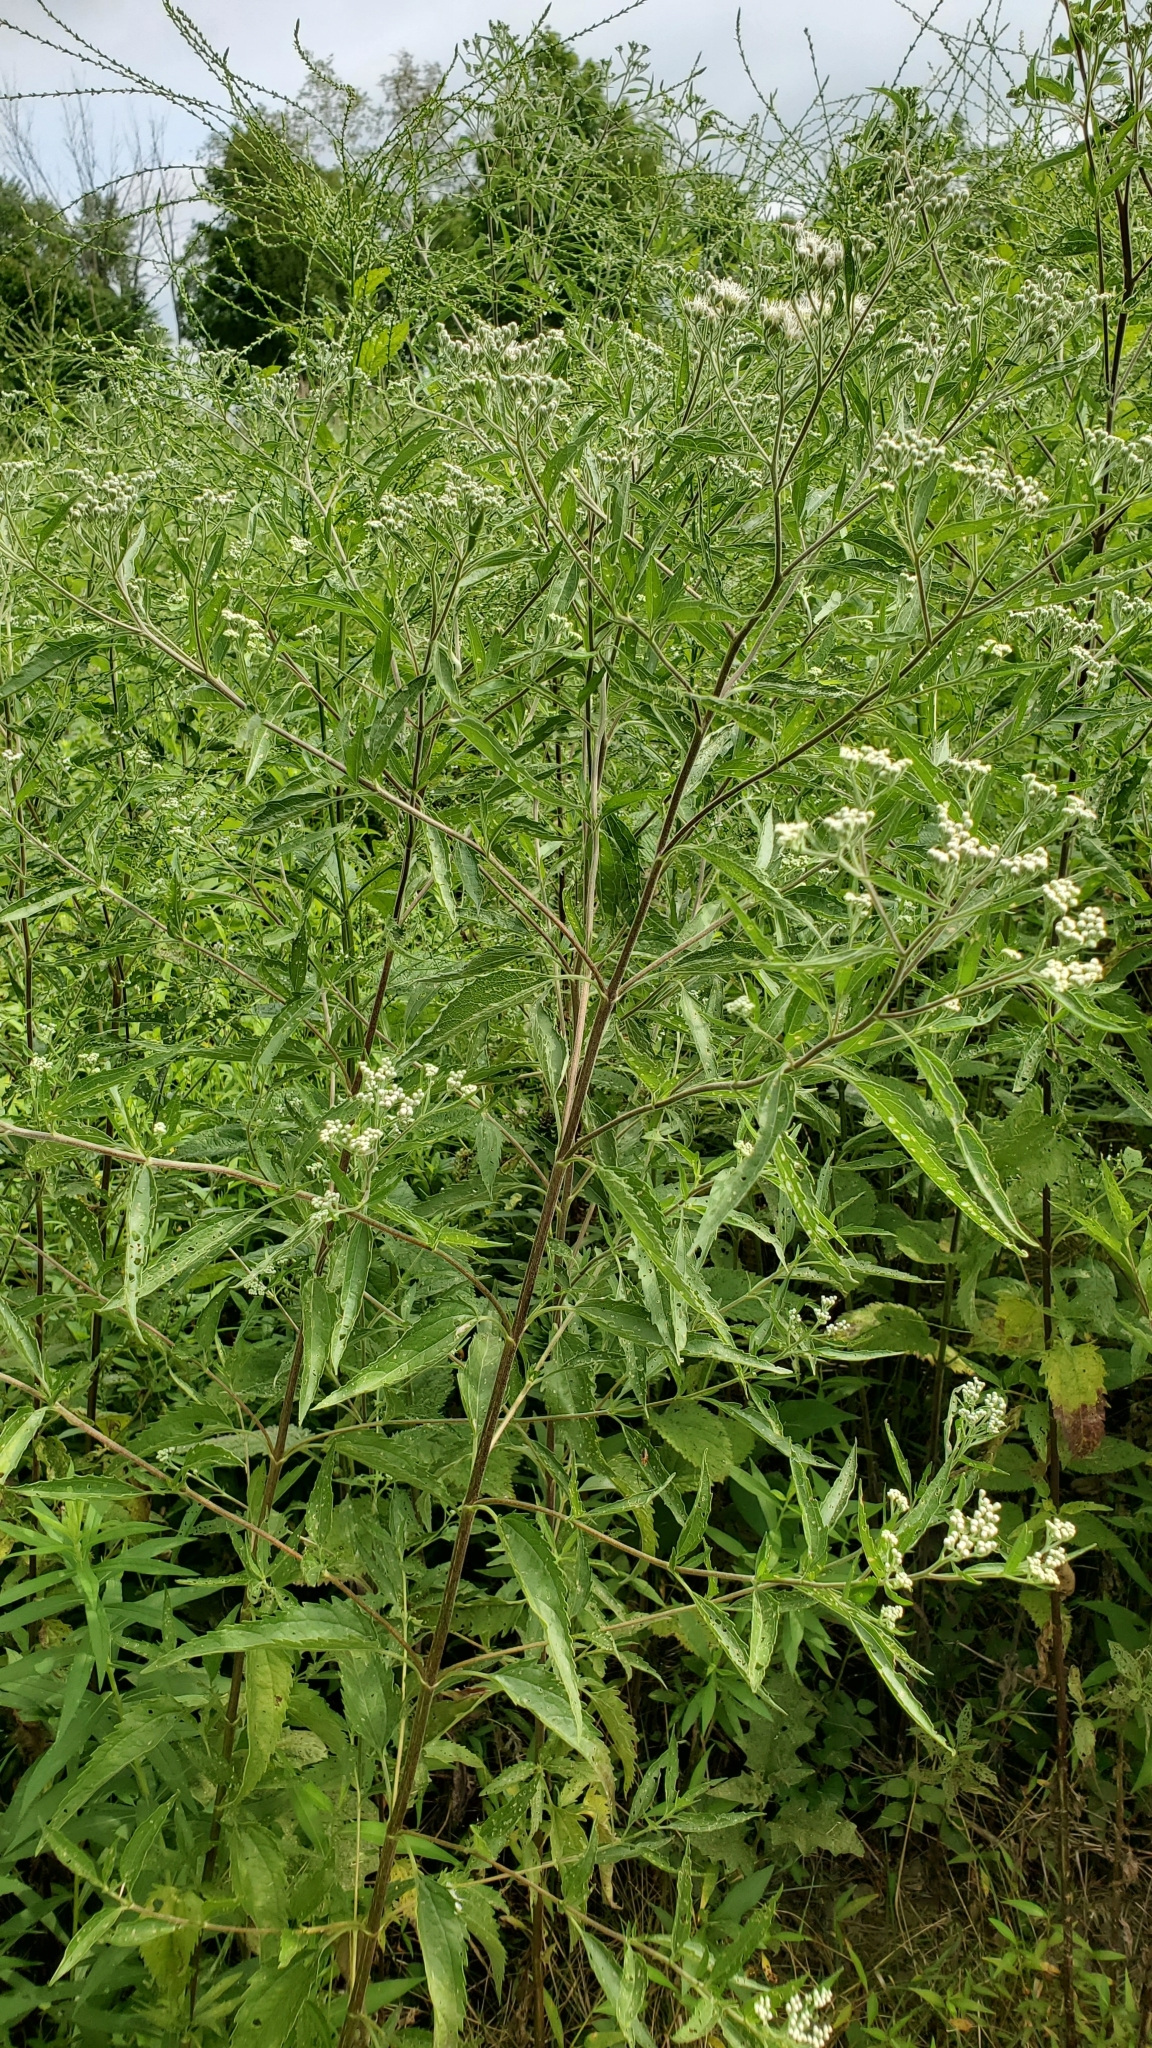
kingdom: Plantae
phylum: Tracheophyta
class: Magnoliopsida
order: Asterales
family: Asteraceae
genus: Eupatorium
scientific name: Eupatorium serotinum
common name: Late boneset
